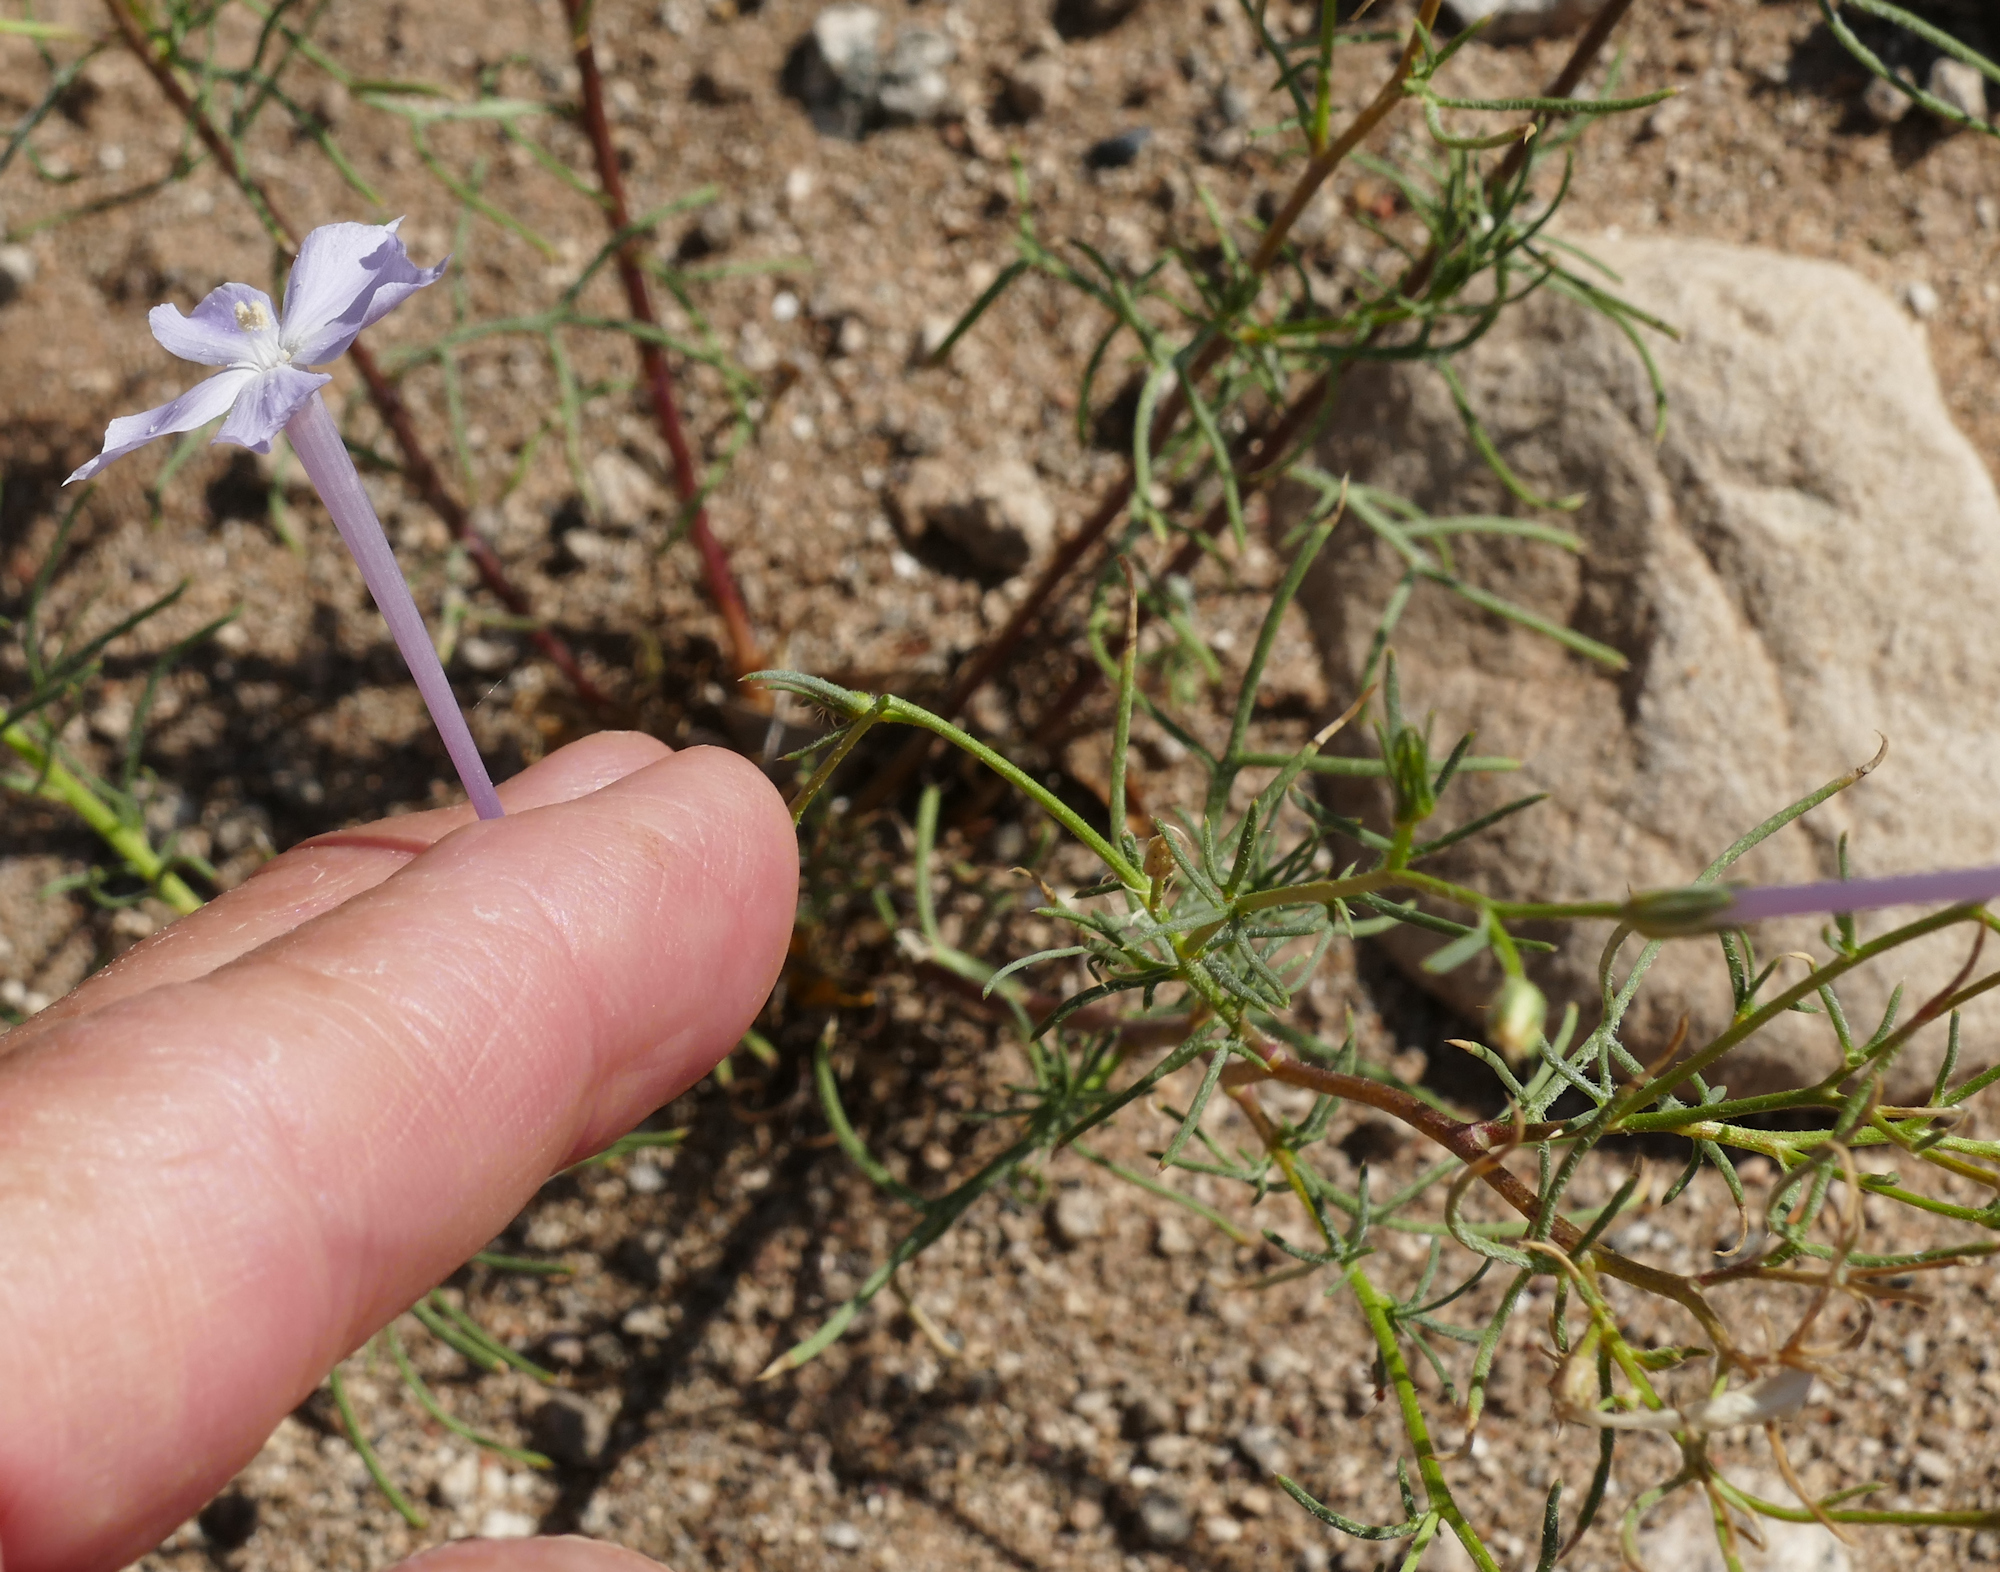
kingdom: Plantae
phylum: Tracheophyta
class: Magnoliopsida
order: Ericales
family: Polemoniaceae
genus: Ipomopsis
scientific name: Ipomopsis longiflora
